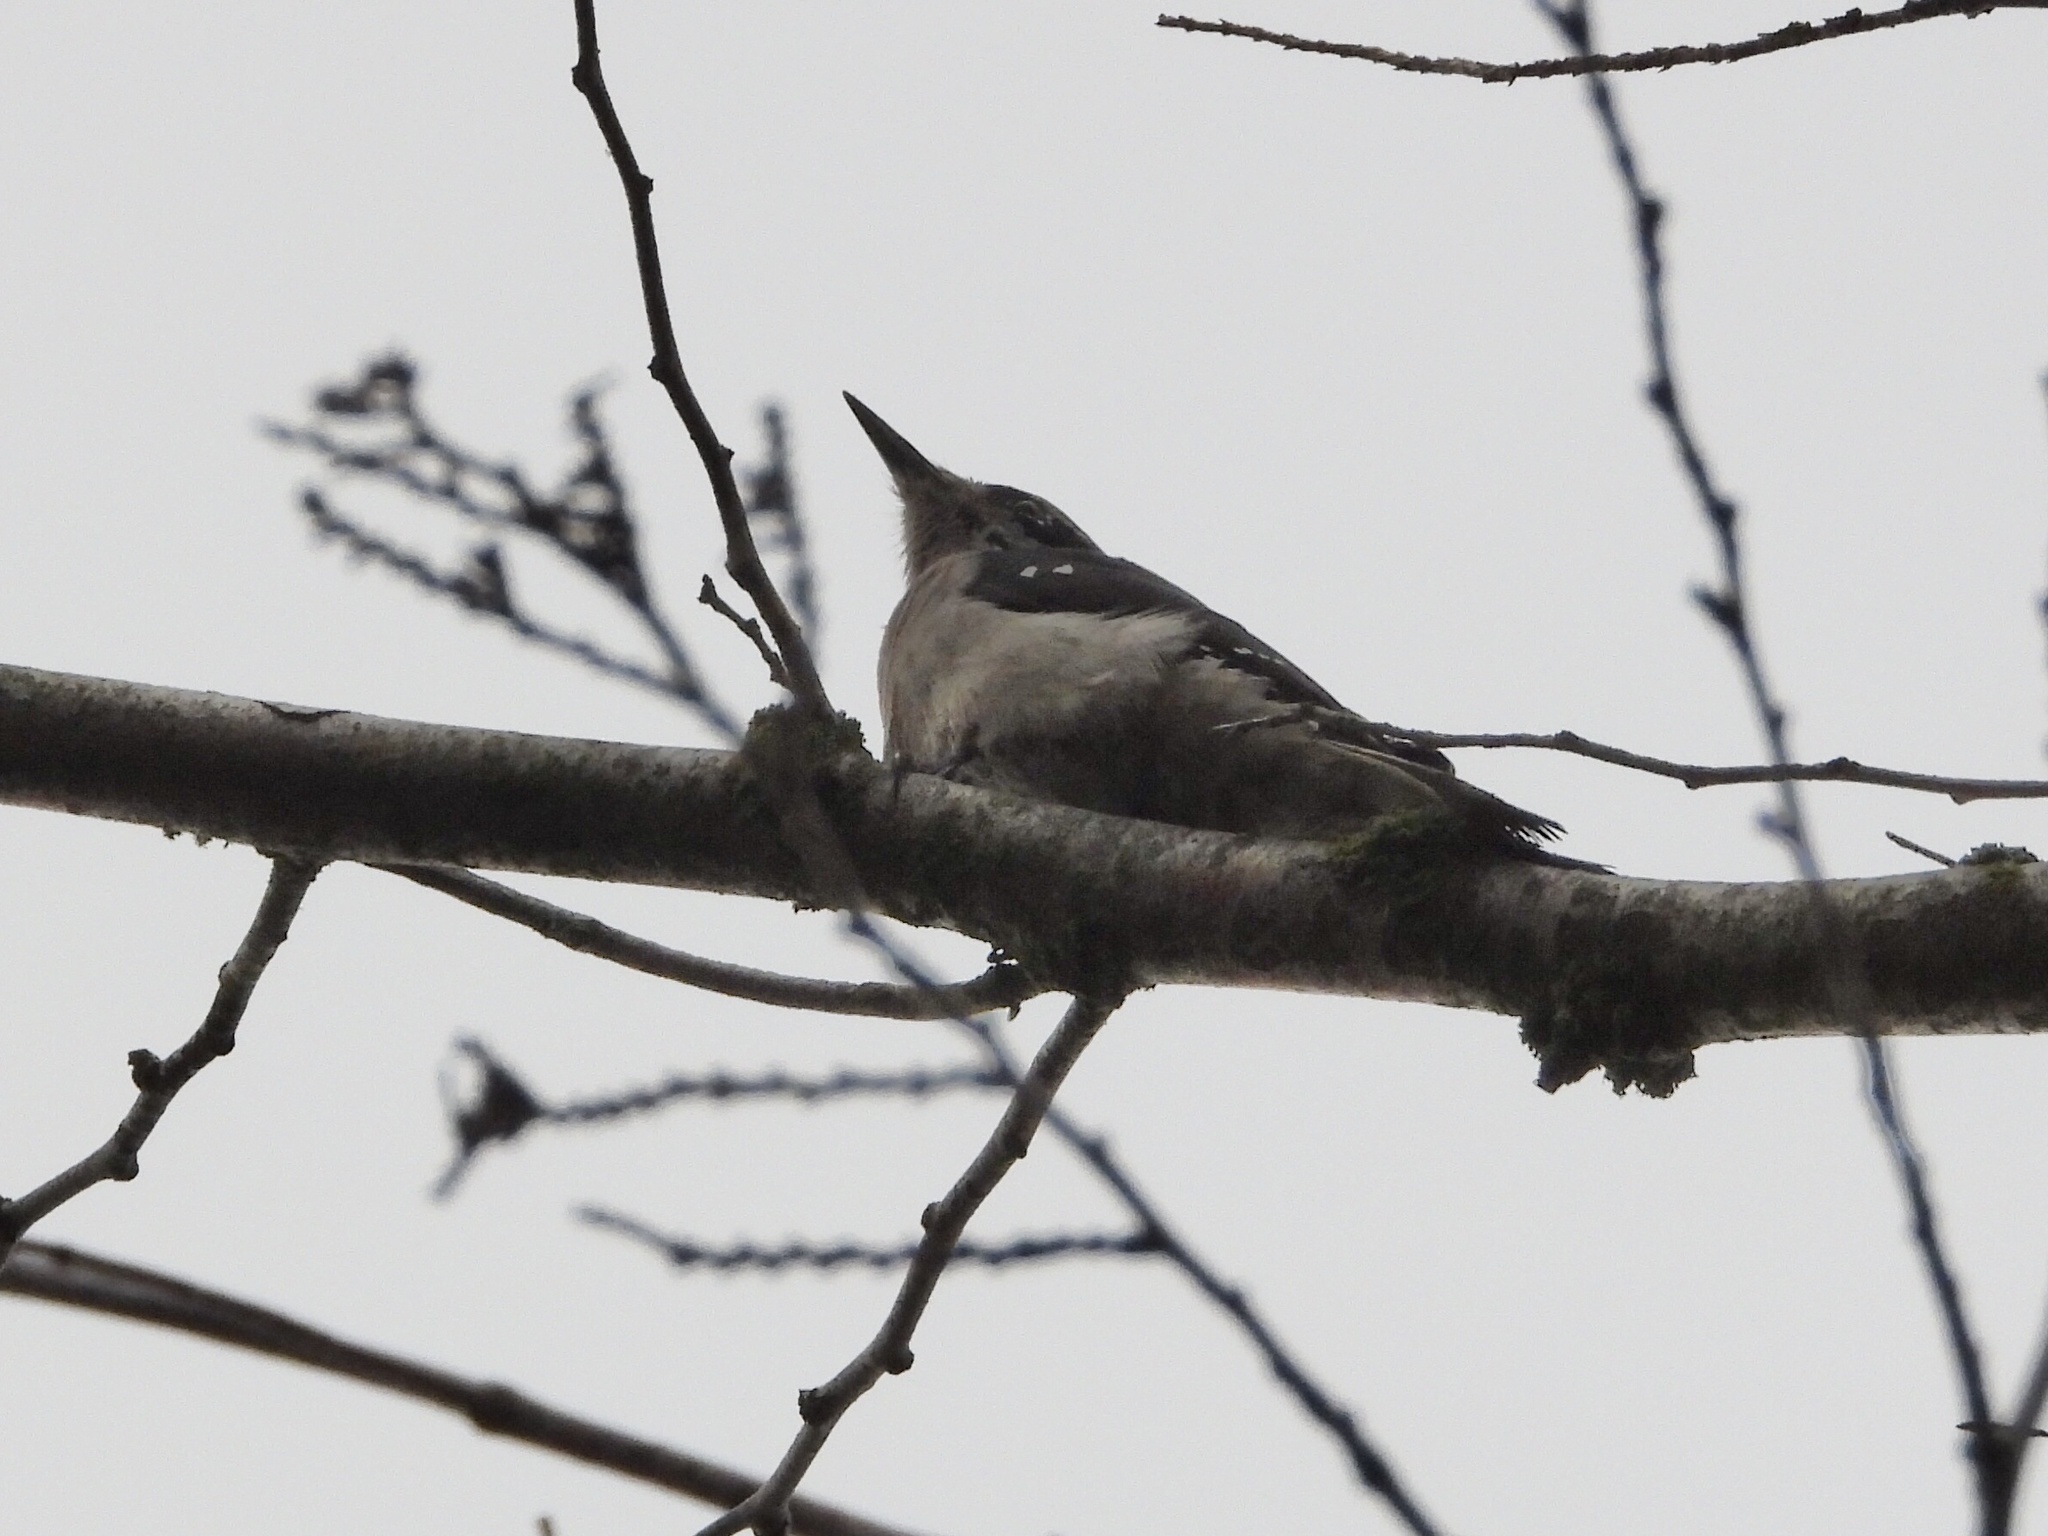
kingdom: Animalia
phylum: Chordata
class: Aves
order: Piciformes
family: Picidae
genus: Leuconotopicus
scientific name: Leuconotopicus villosus
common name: Hairy woodpecker
